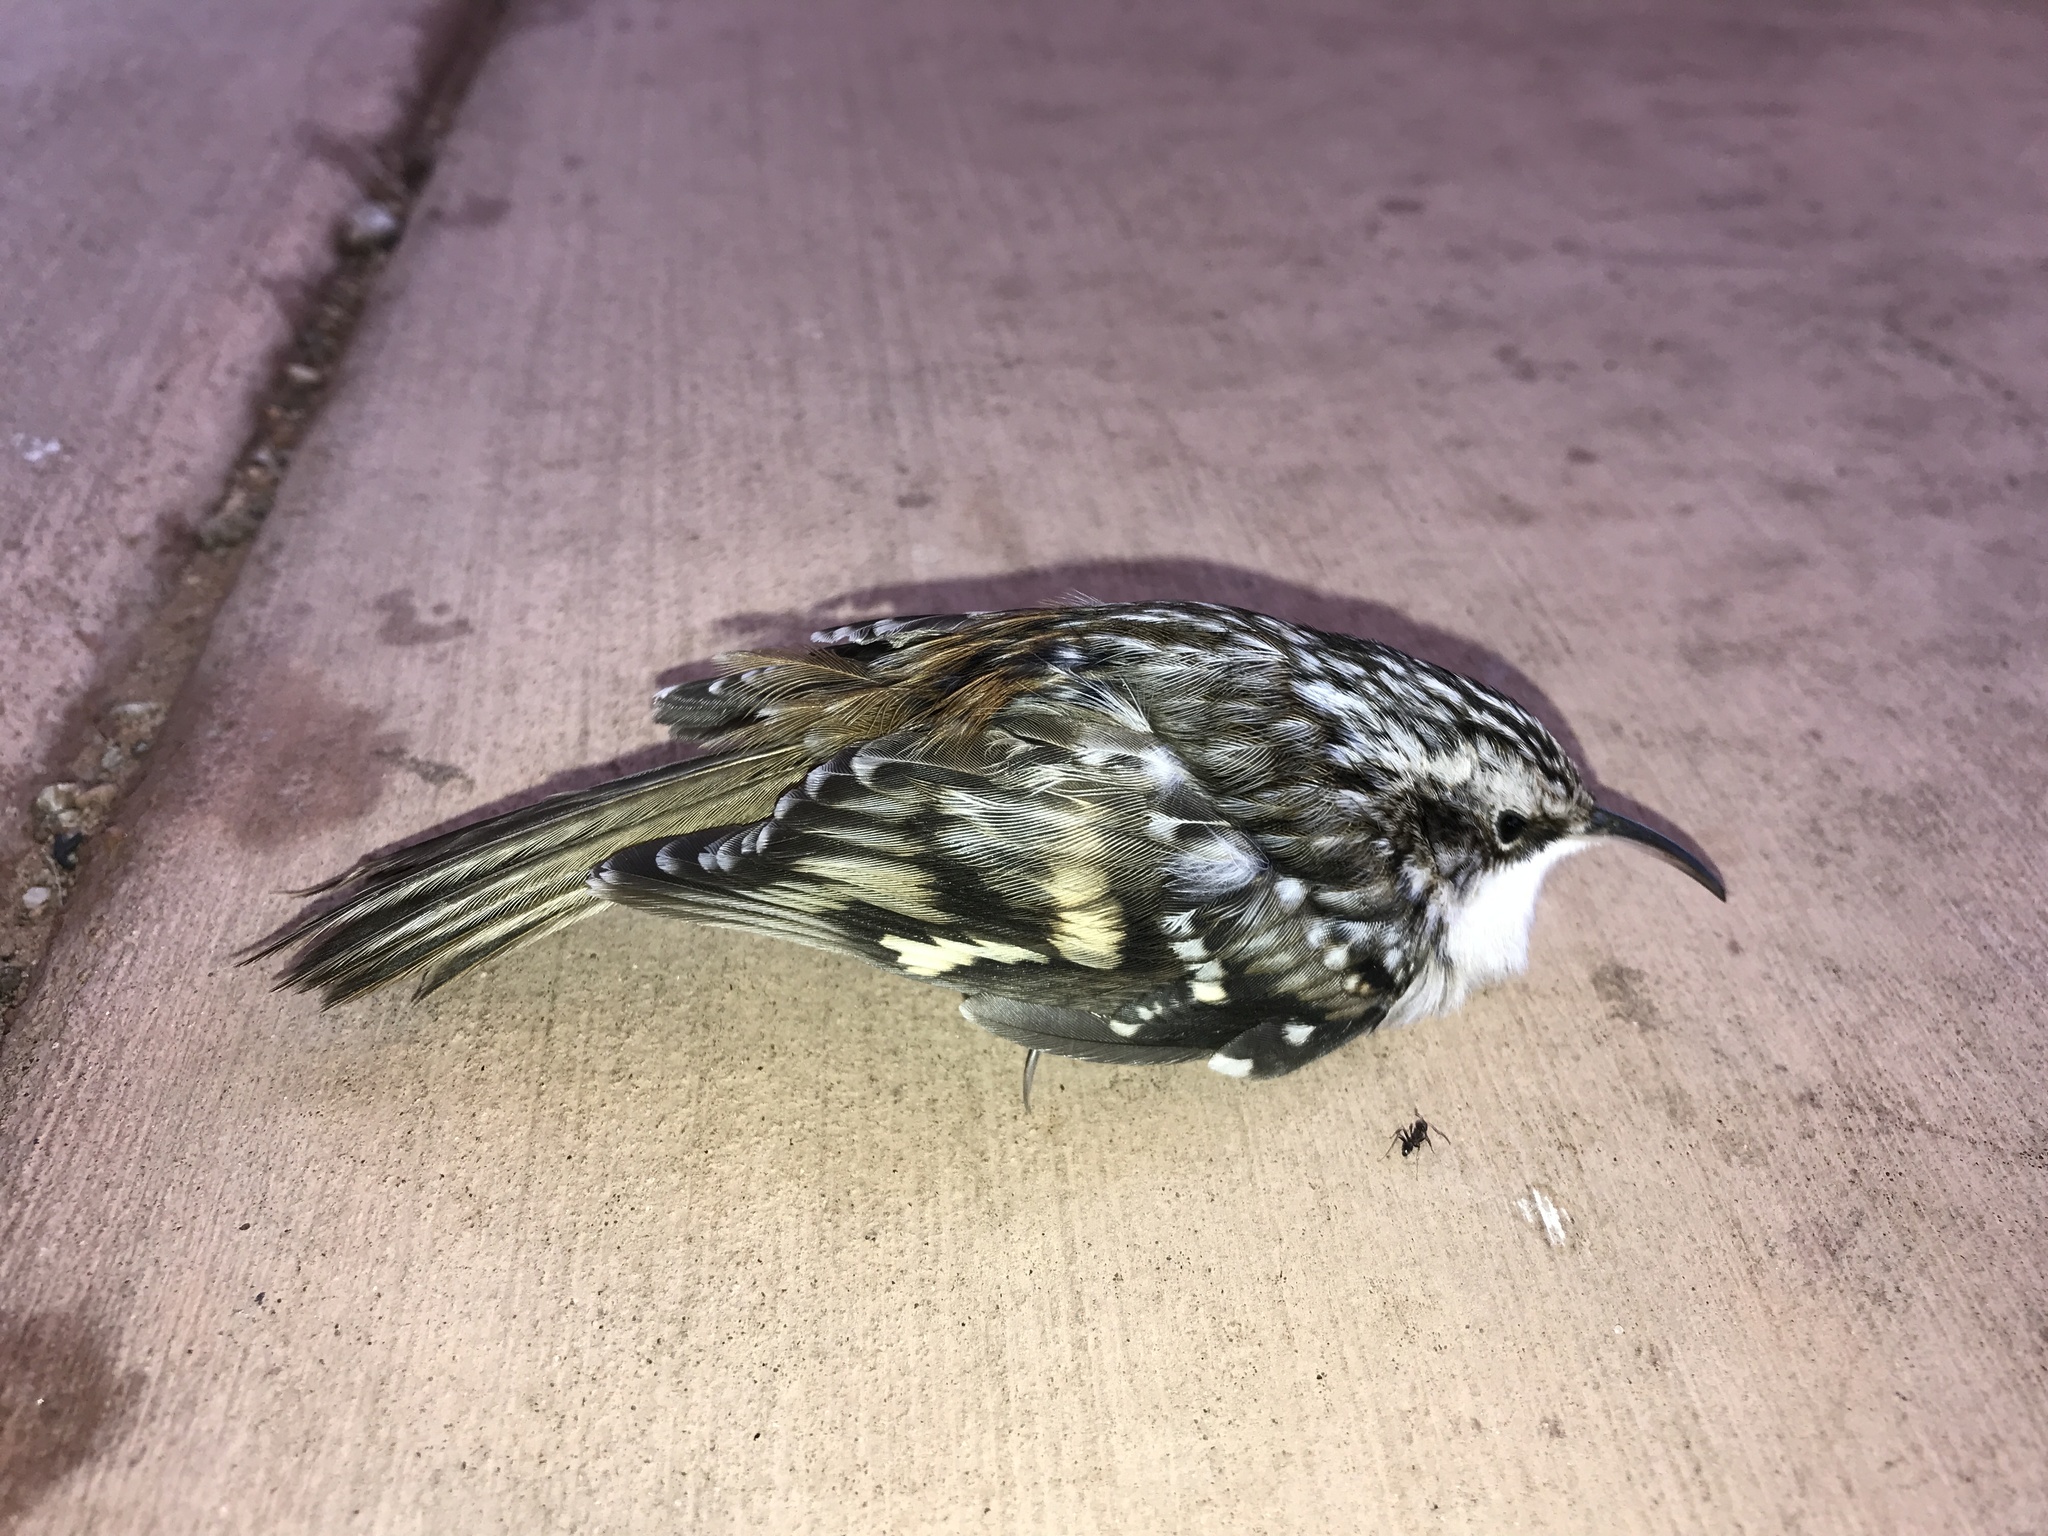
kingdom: Animalia
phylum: Chordata
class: Aves
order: Passeriformes
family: Certhiidae
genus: Certhia
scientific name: Certhia americana
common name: Brown creeper
